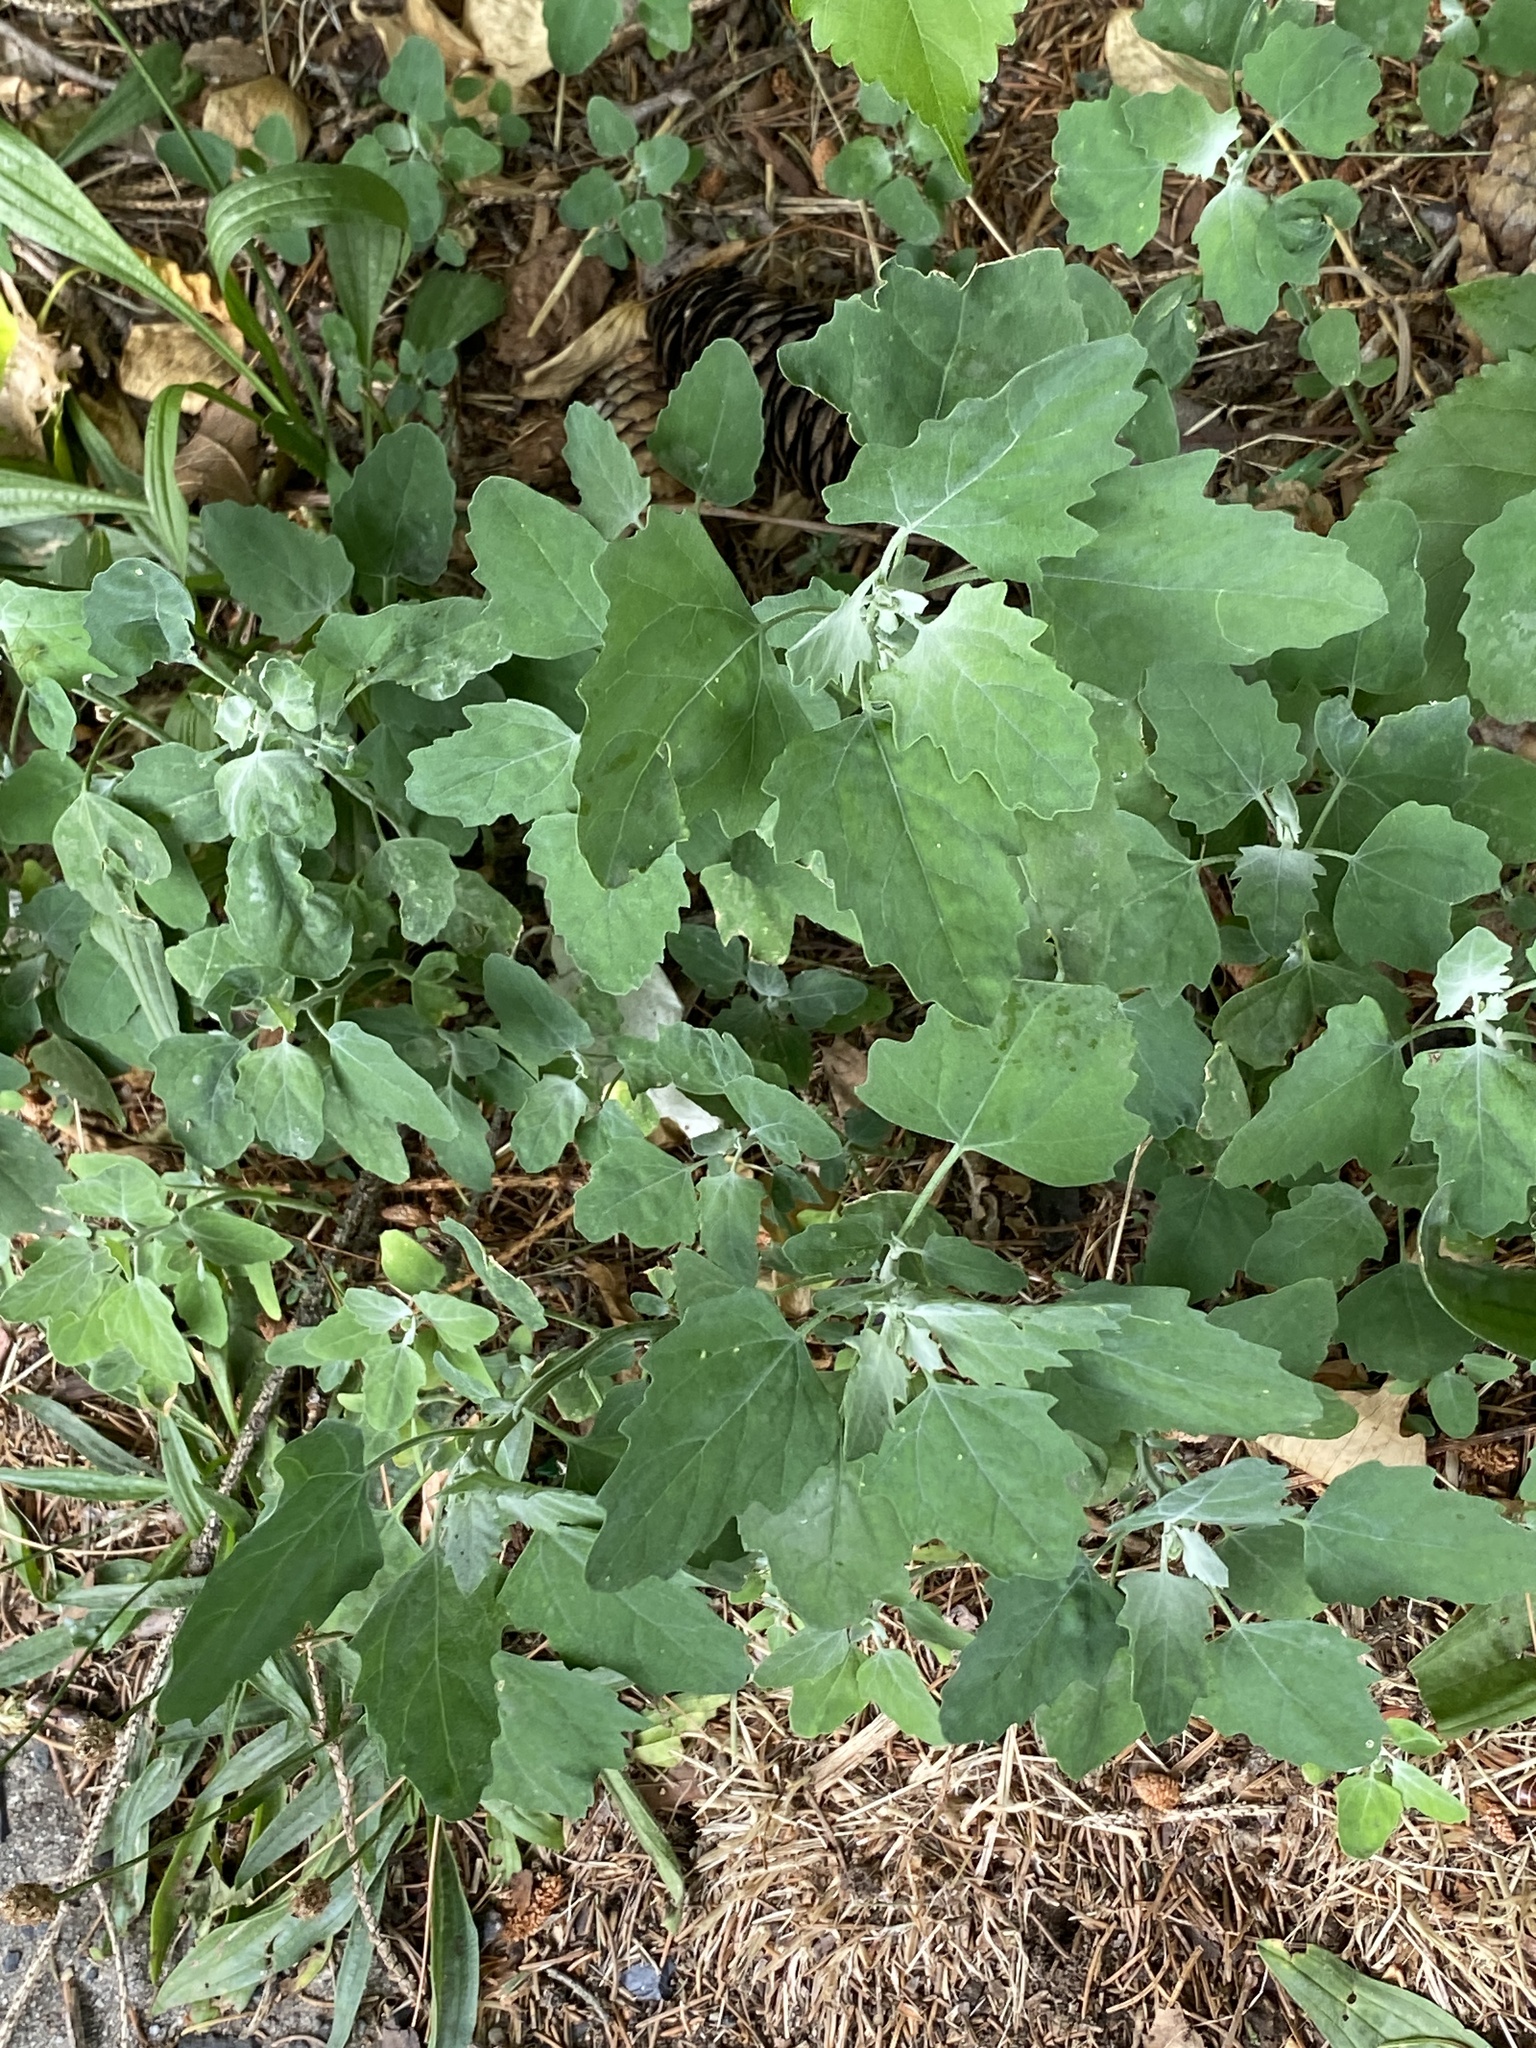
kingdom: Plantae
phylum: Tracheophyta
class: Magnoliopsida
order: Caryophyllales
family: Amaranthaceae
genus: Chenopodium
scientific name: Chenopodium album
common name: Fat-hen
